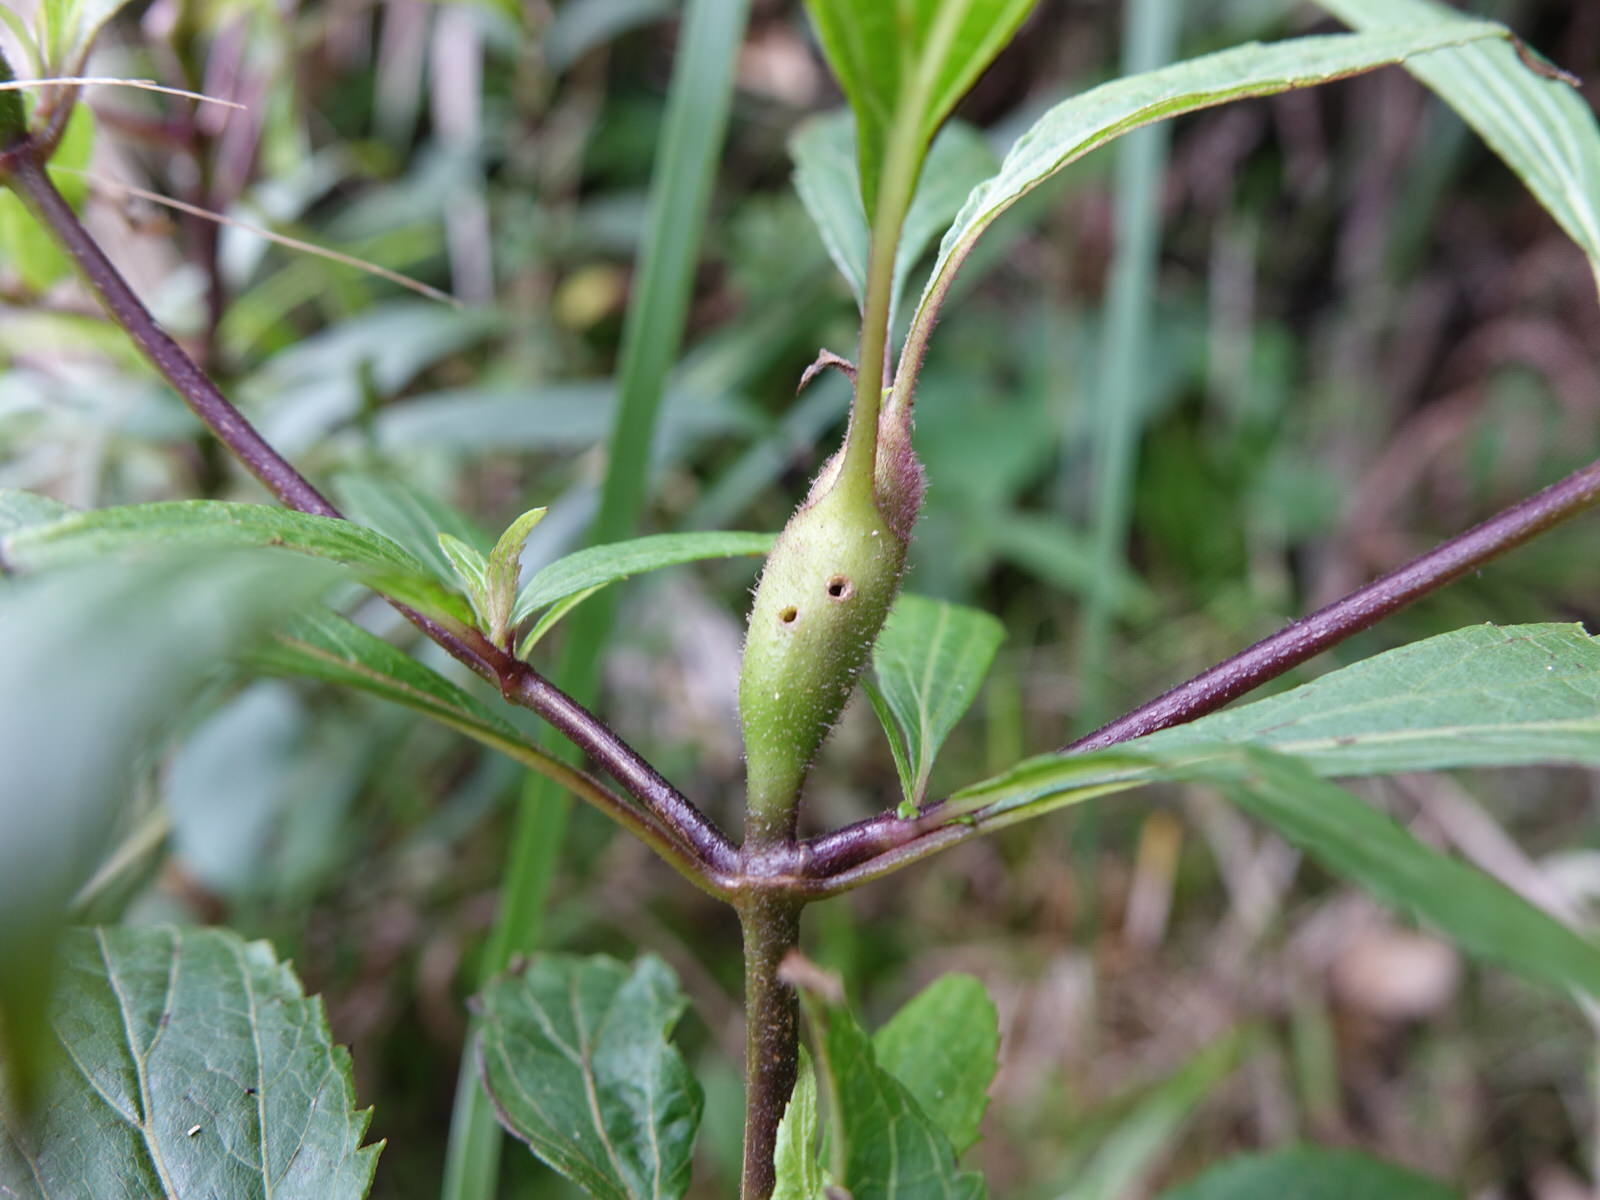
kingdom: Plantae
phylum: Tracheophyta
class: Magnoliopsida
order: Asterales
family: Asteraceae
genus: Ageratina
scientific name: Ageratina riparia
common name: Creeping croftonweed
